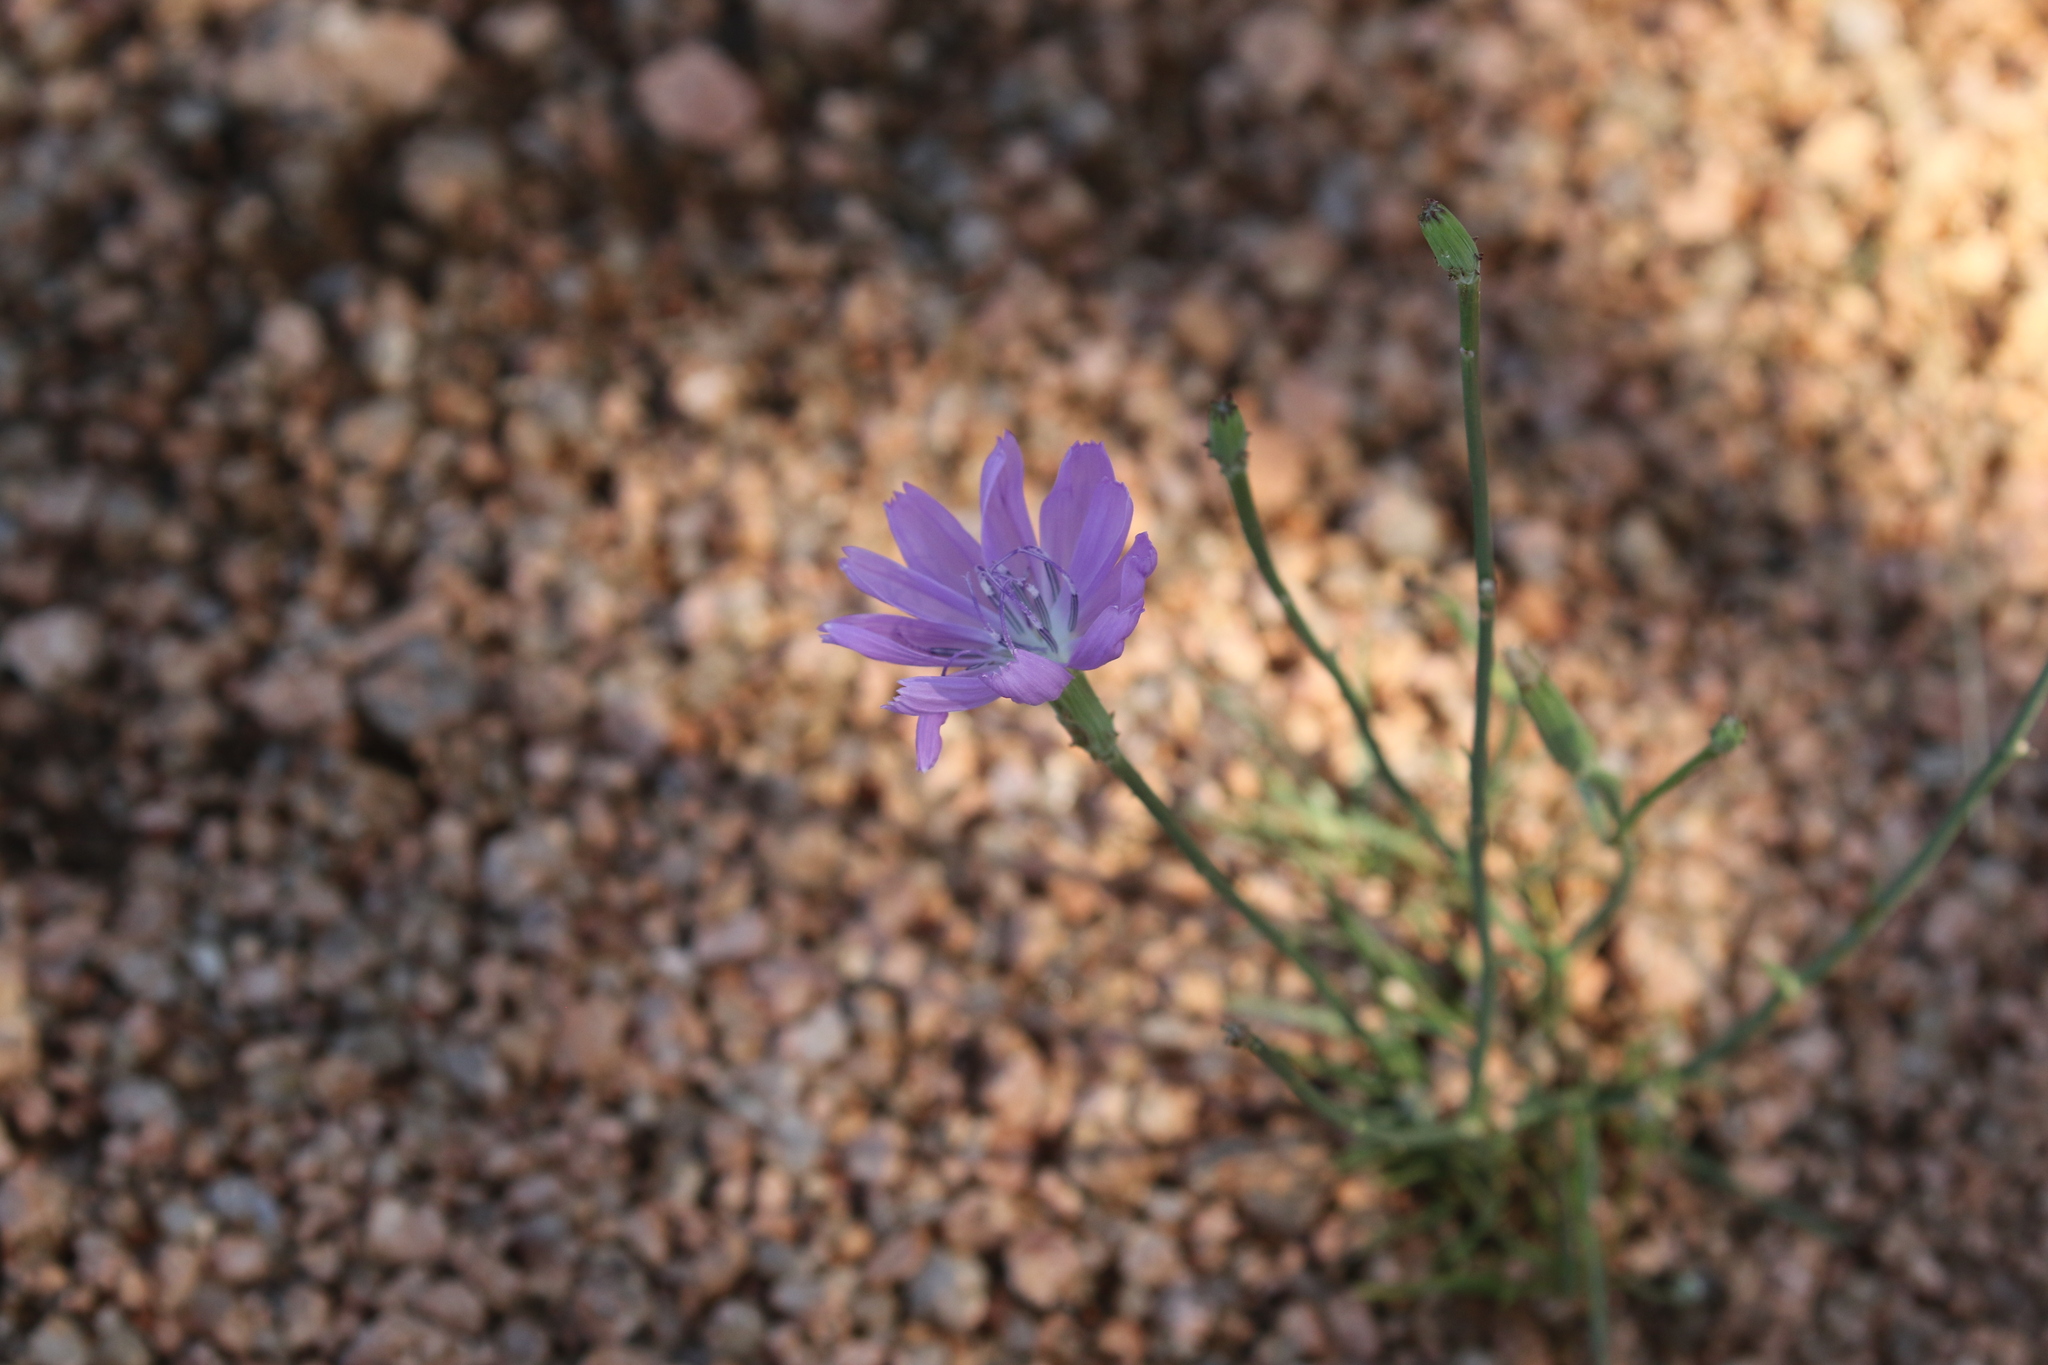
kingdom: Plantae
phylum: Tracheophyta
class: Magnoliopsida
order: Asterales
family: Asteraceae
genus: Lygodesmia
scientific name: Lygodesmia texana
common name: Texas skeleton-plant
